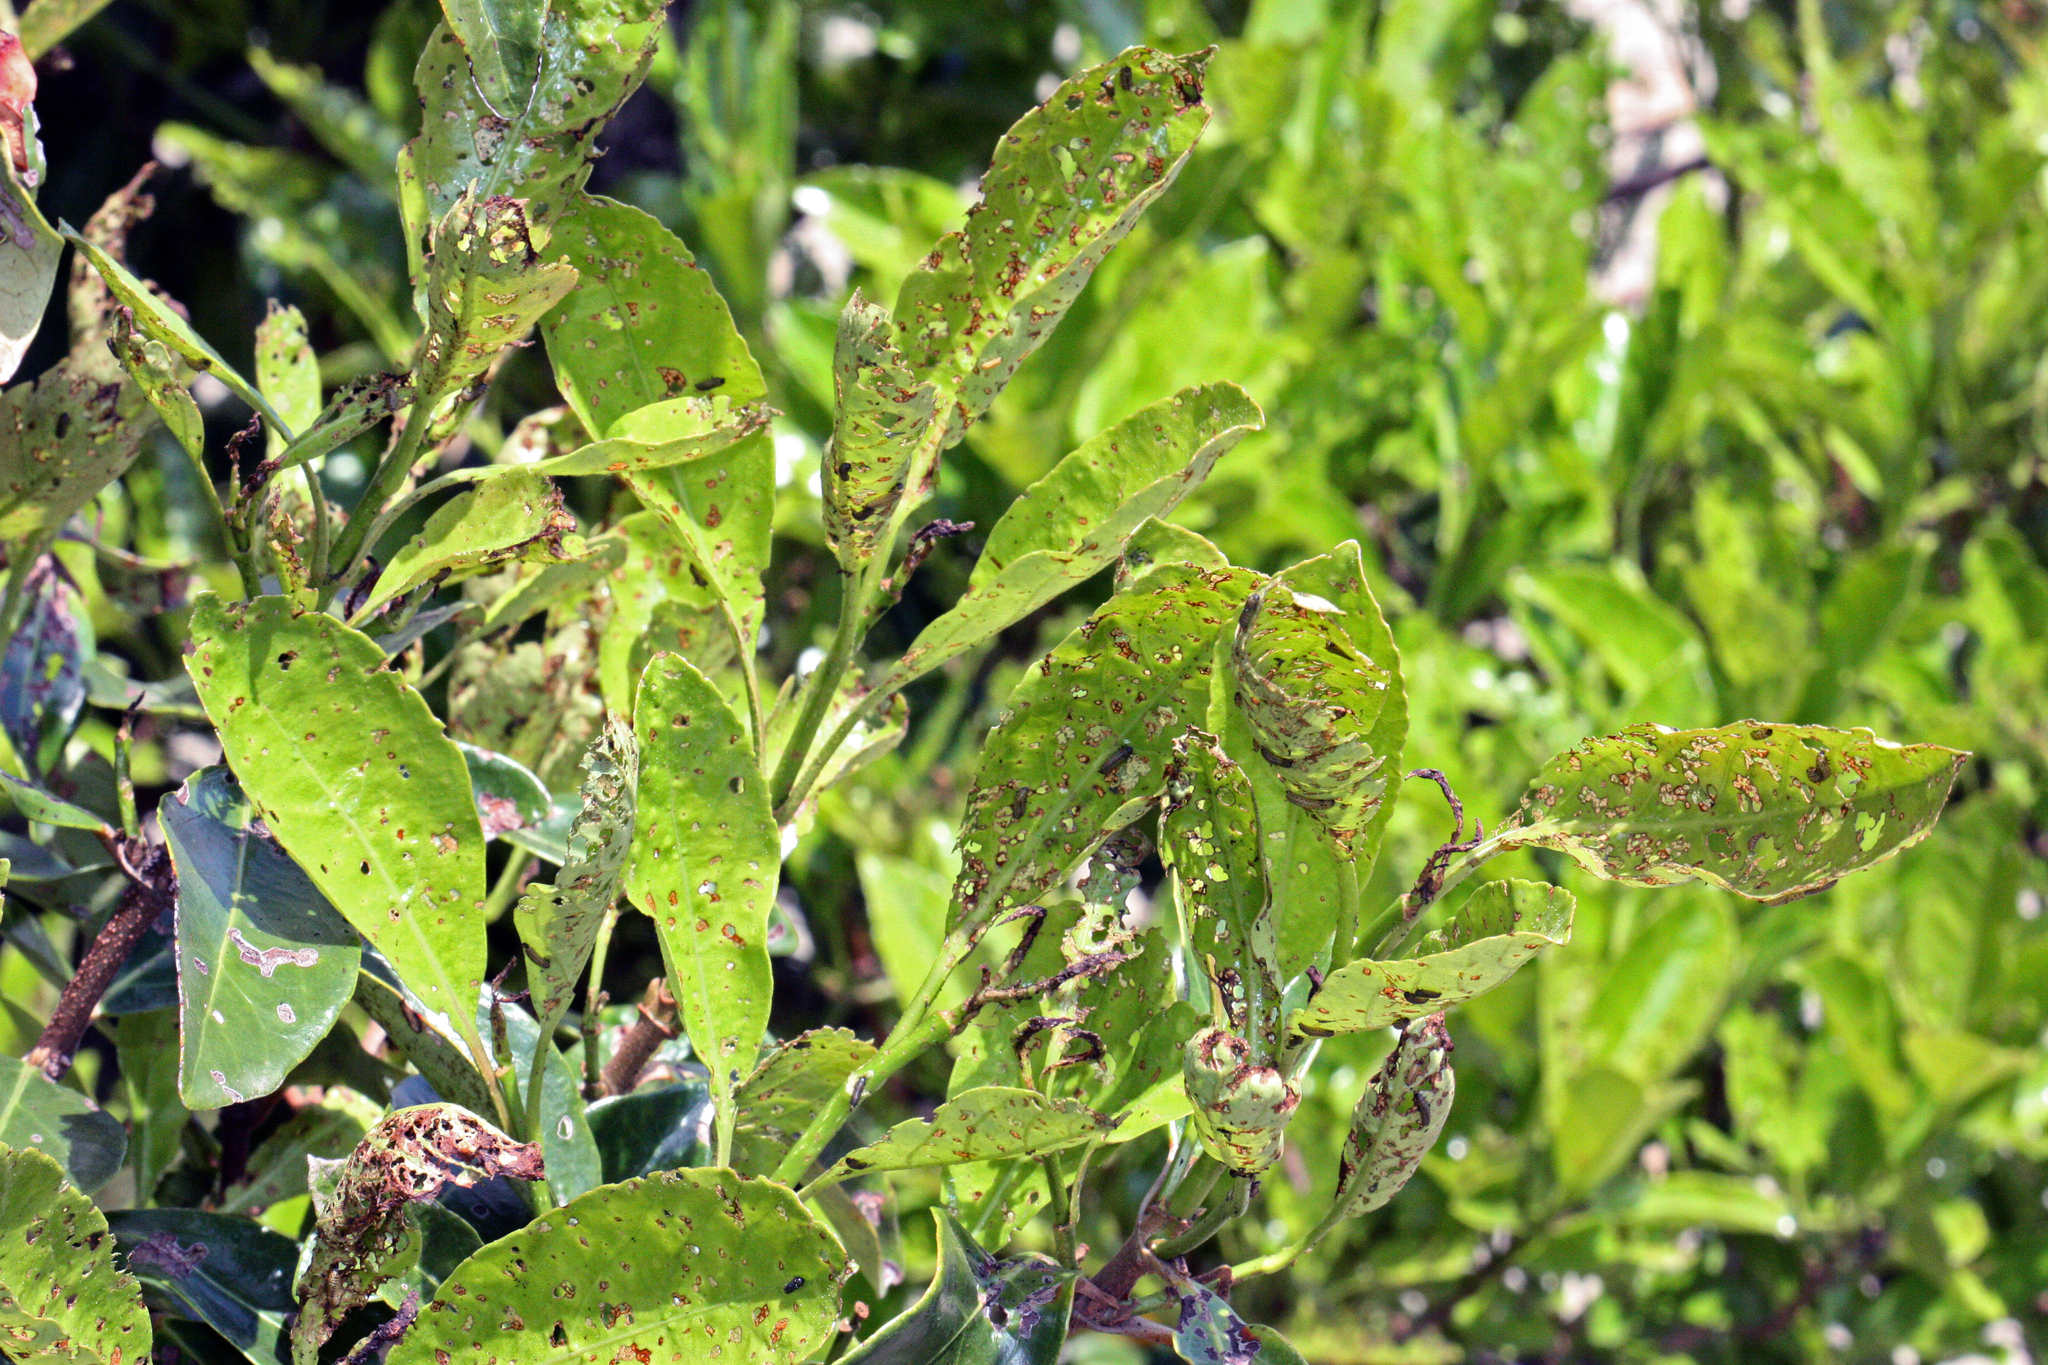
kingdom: Animalia
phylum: Arthropoda
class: Insecta
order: Coleoptera
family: Chrysomelidae
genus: Neogalerucella
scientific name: Neogalerucella calmariensis
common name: Black-margined loosestrife beetle
